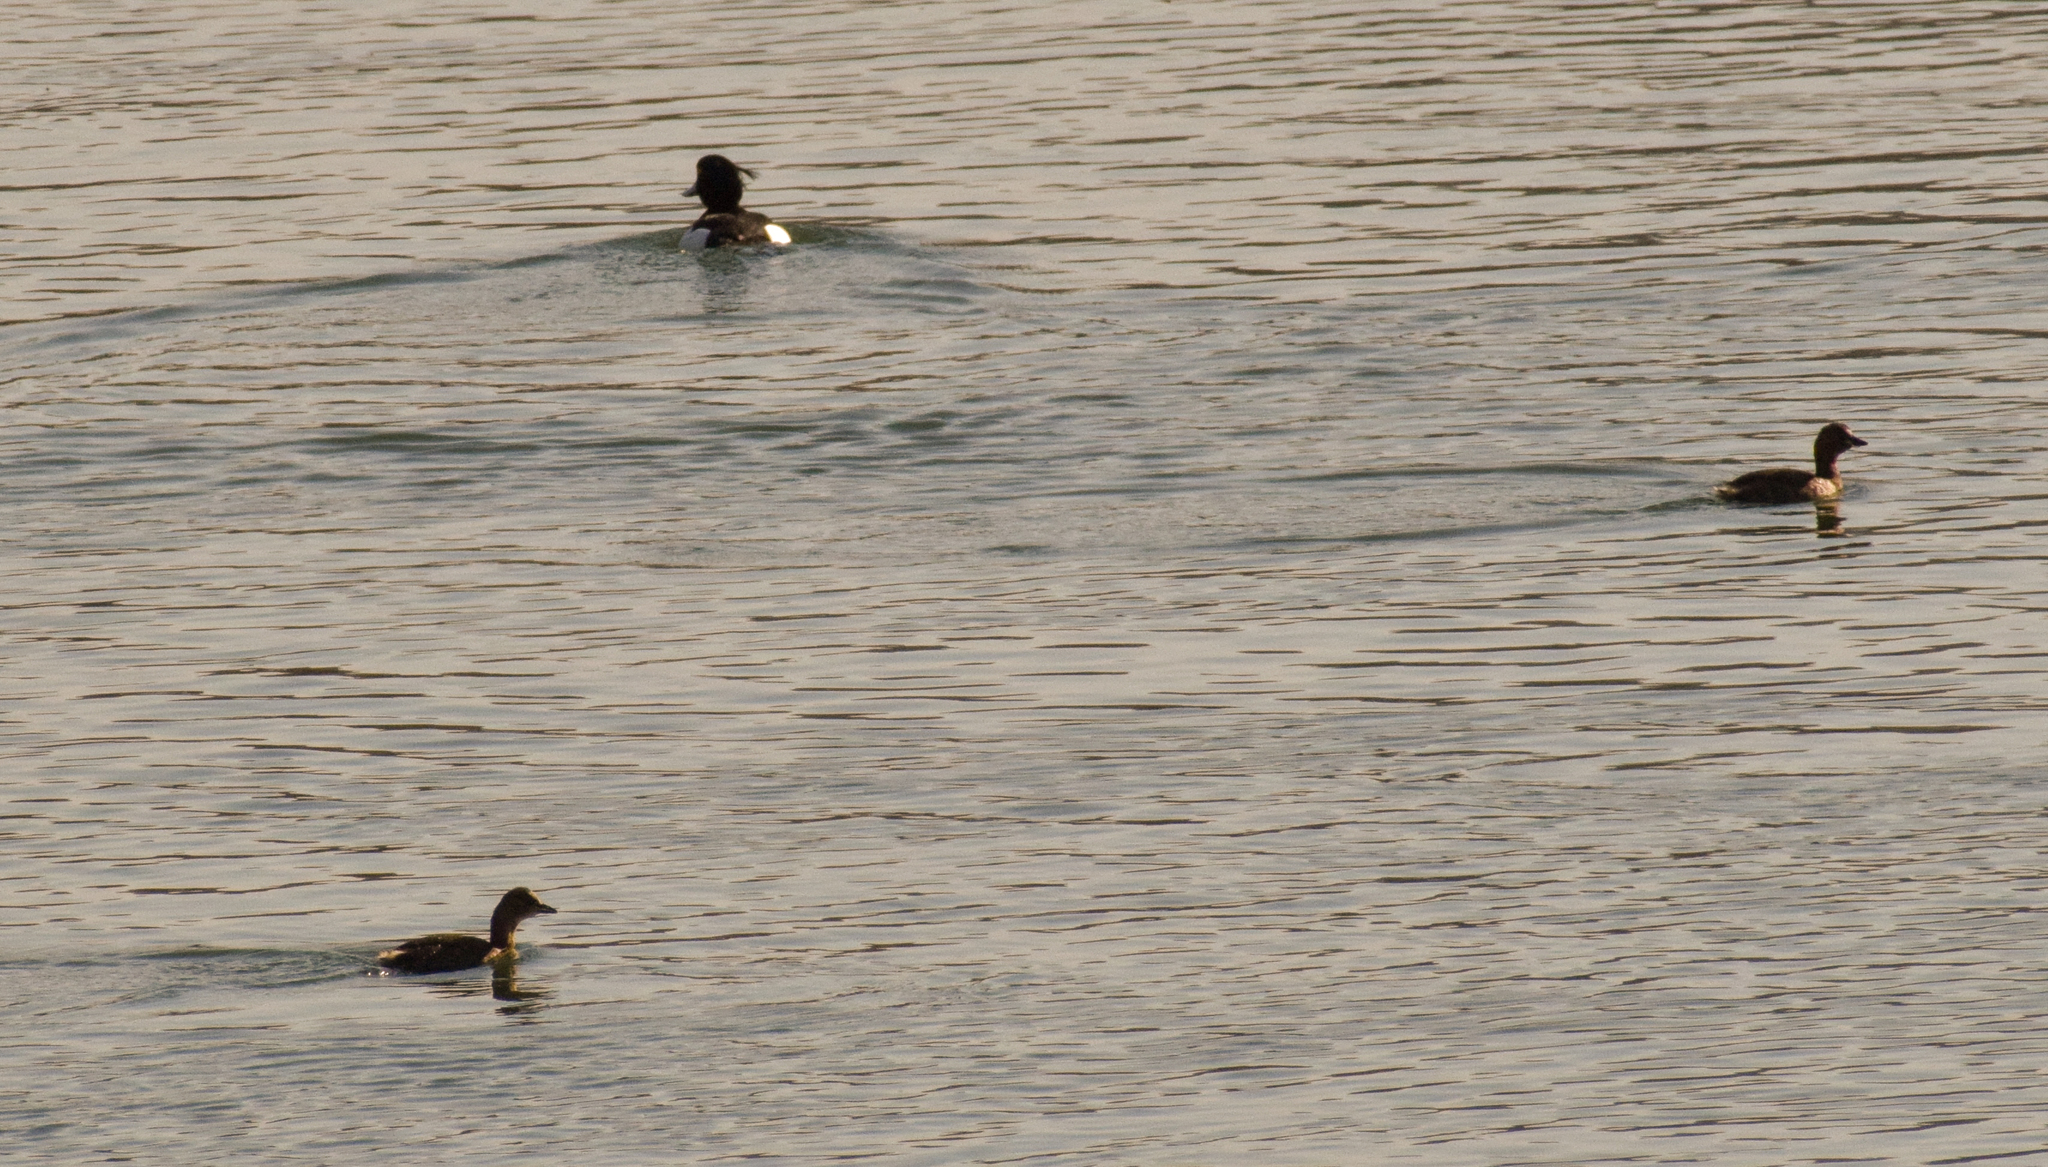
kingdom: Animalia
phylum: Chordata
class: Aves
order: Podicipediformes
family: Podicipedidae
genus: Tachybaptus
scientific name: Tachybaptus ruficollis
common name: Little grebe
